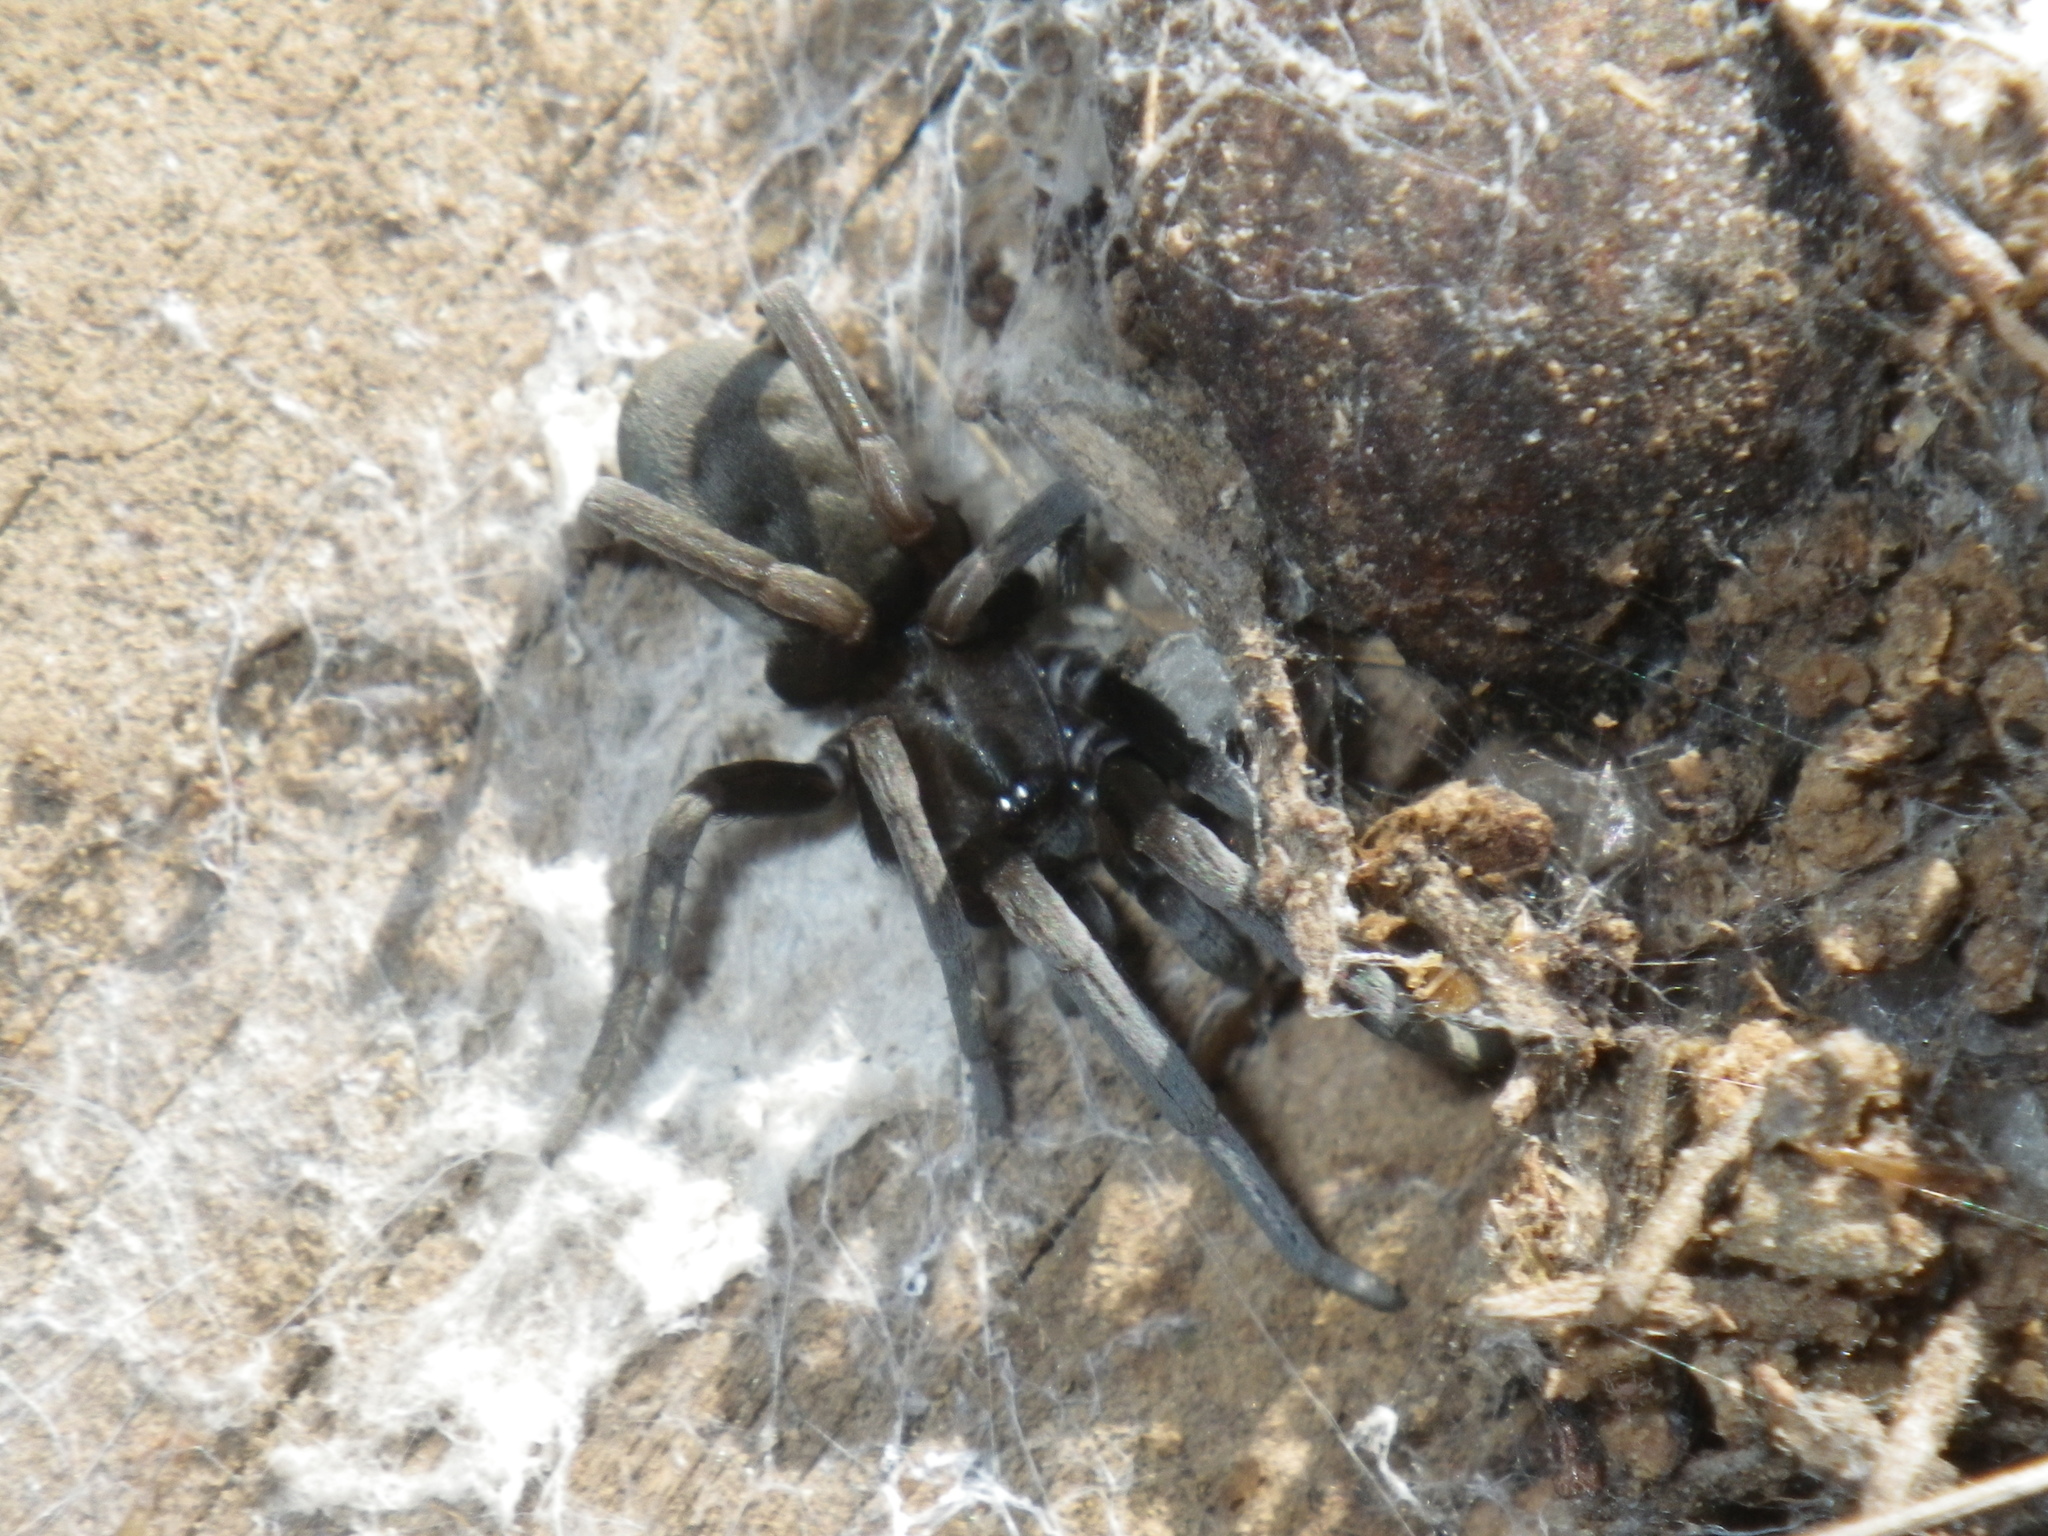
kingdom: Animalia
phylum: Arthropoda
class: Arachnida
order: Araneae
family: Filistatidae
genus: Kukulcania
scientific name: Kukulcania arizonica
